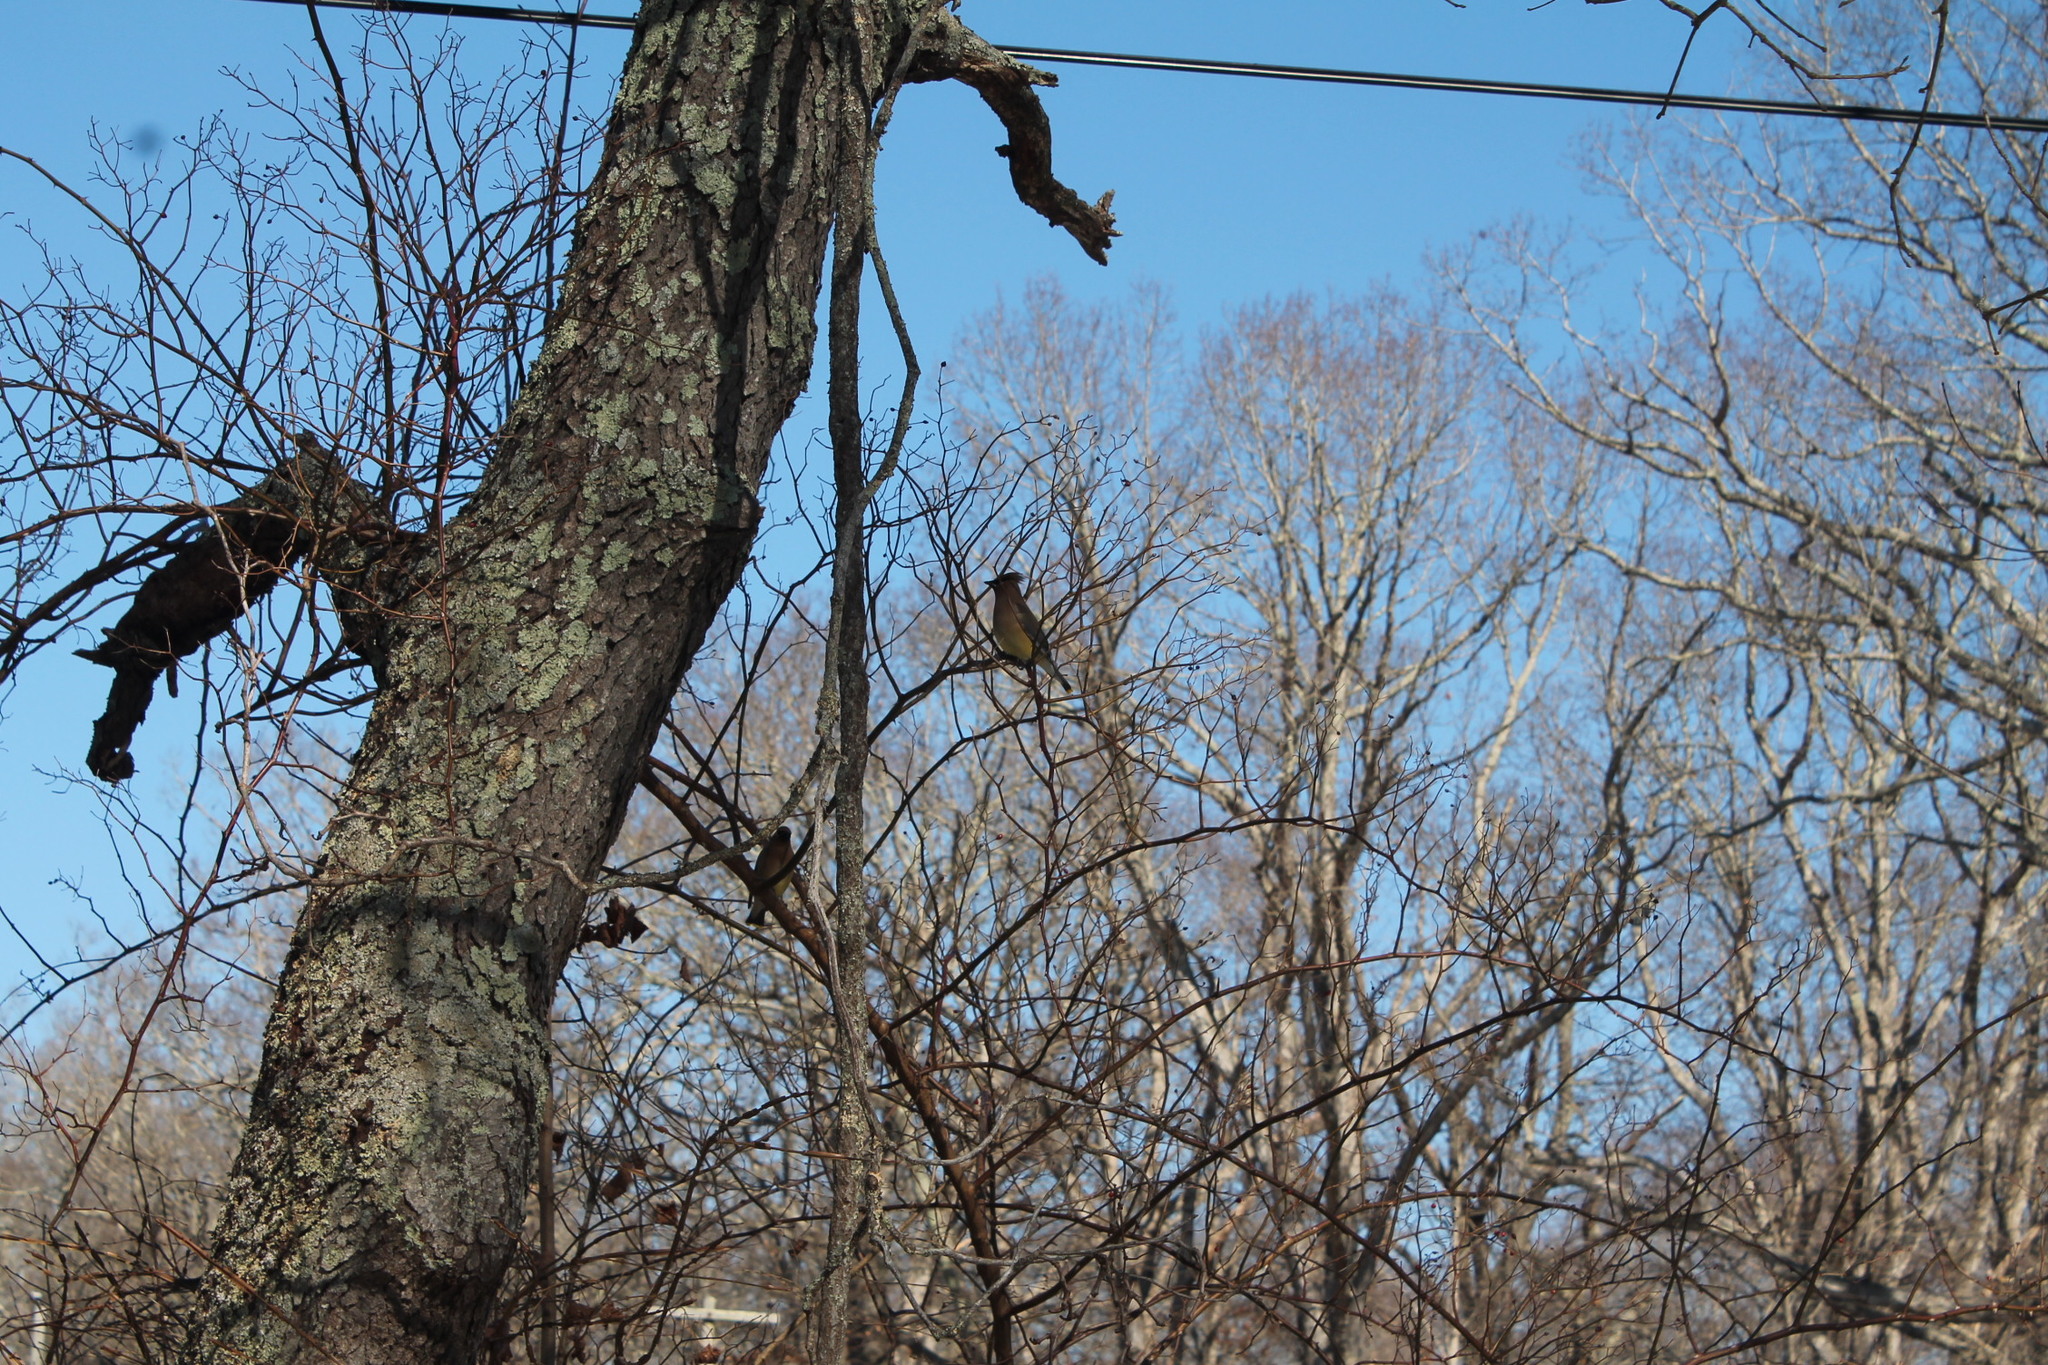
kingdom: Animalia
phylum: Chordata
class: Aves
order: Passeriformes
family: Bombycillidae
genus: Bombycilla
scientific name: Bombycilla cedrorum
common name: Cedar waxwing
